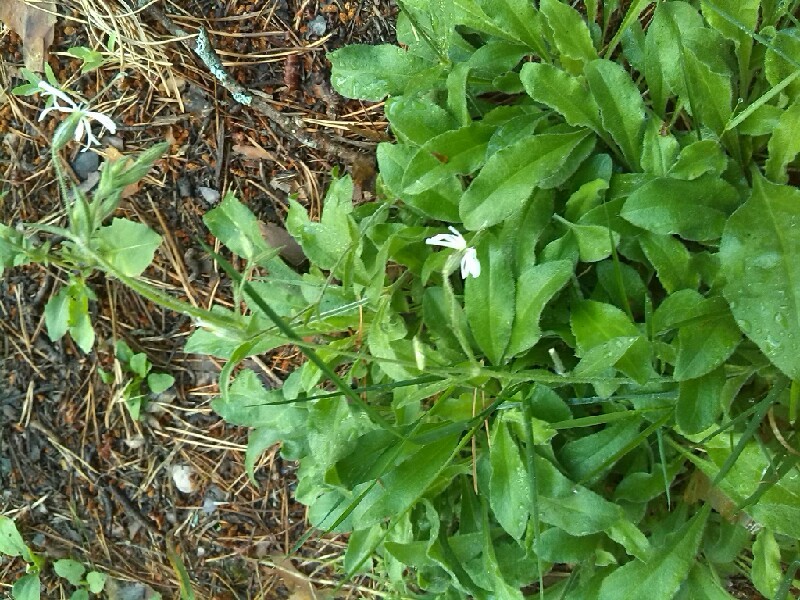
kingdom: Plantae
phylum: Tracheophyta
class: Magnoliopsida
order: Caryophyllales
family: Caryophyllaceae
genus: Silene
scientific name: Silene nutans
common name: Nottingham catchfly
